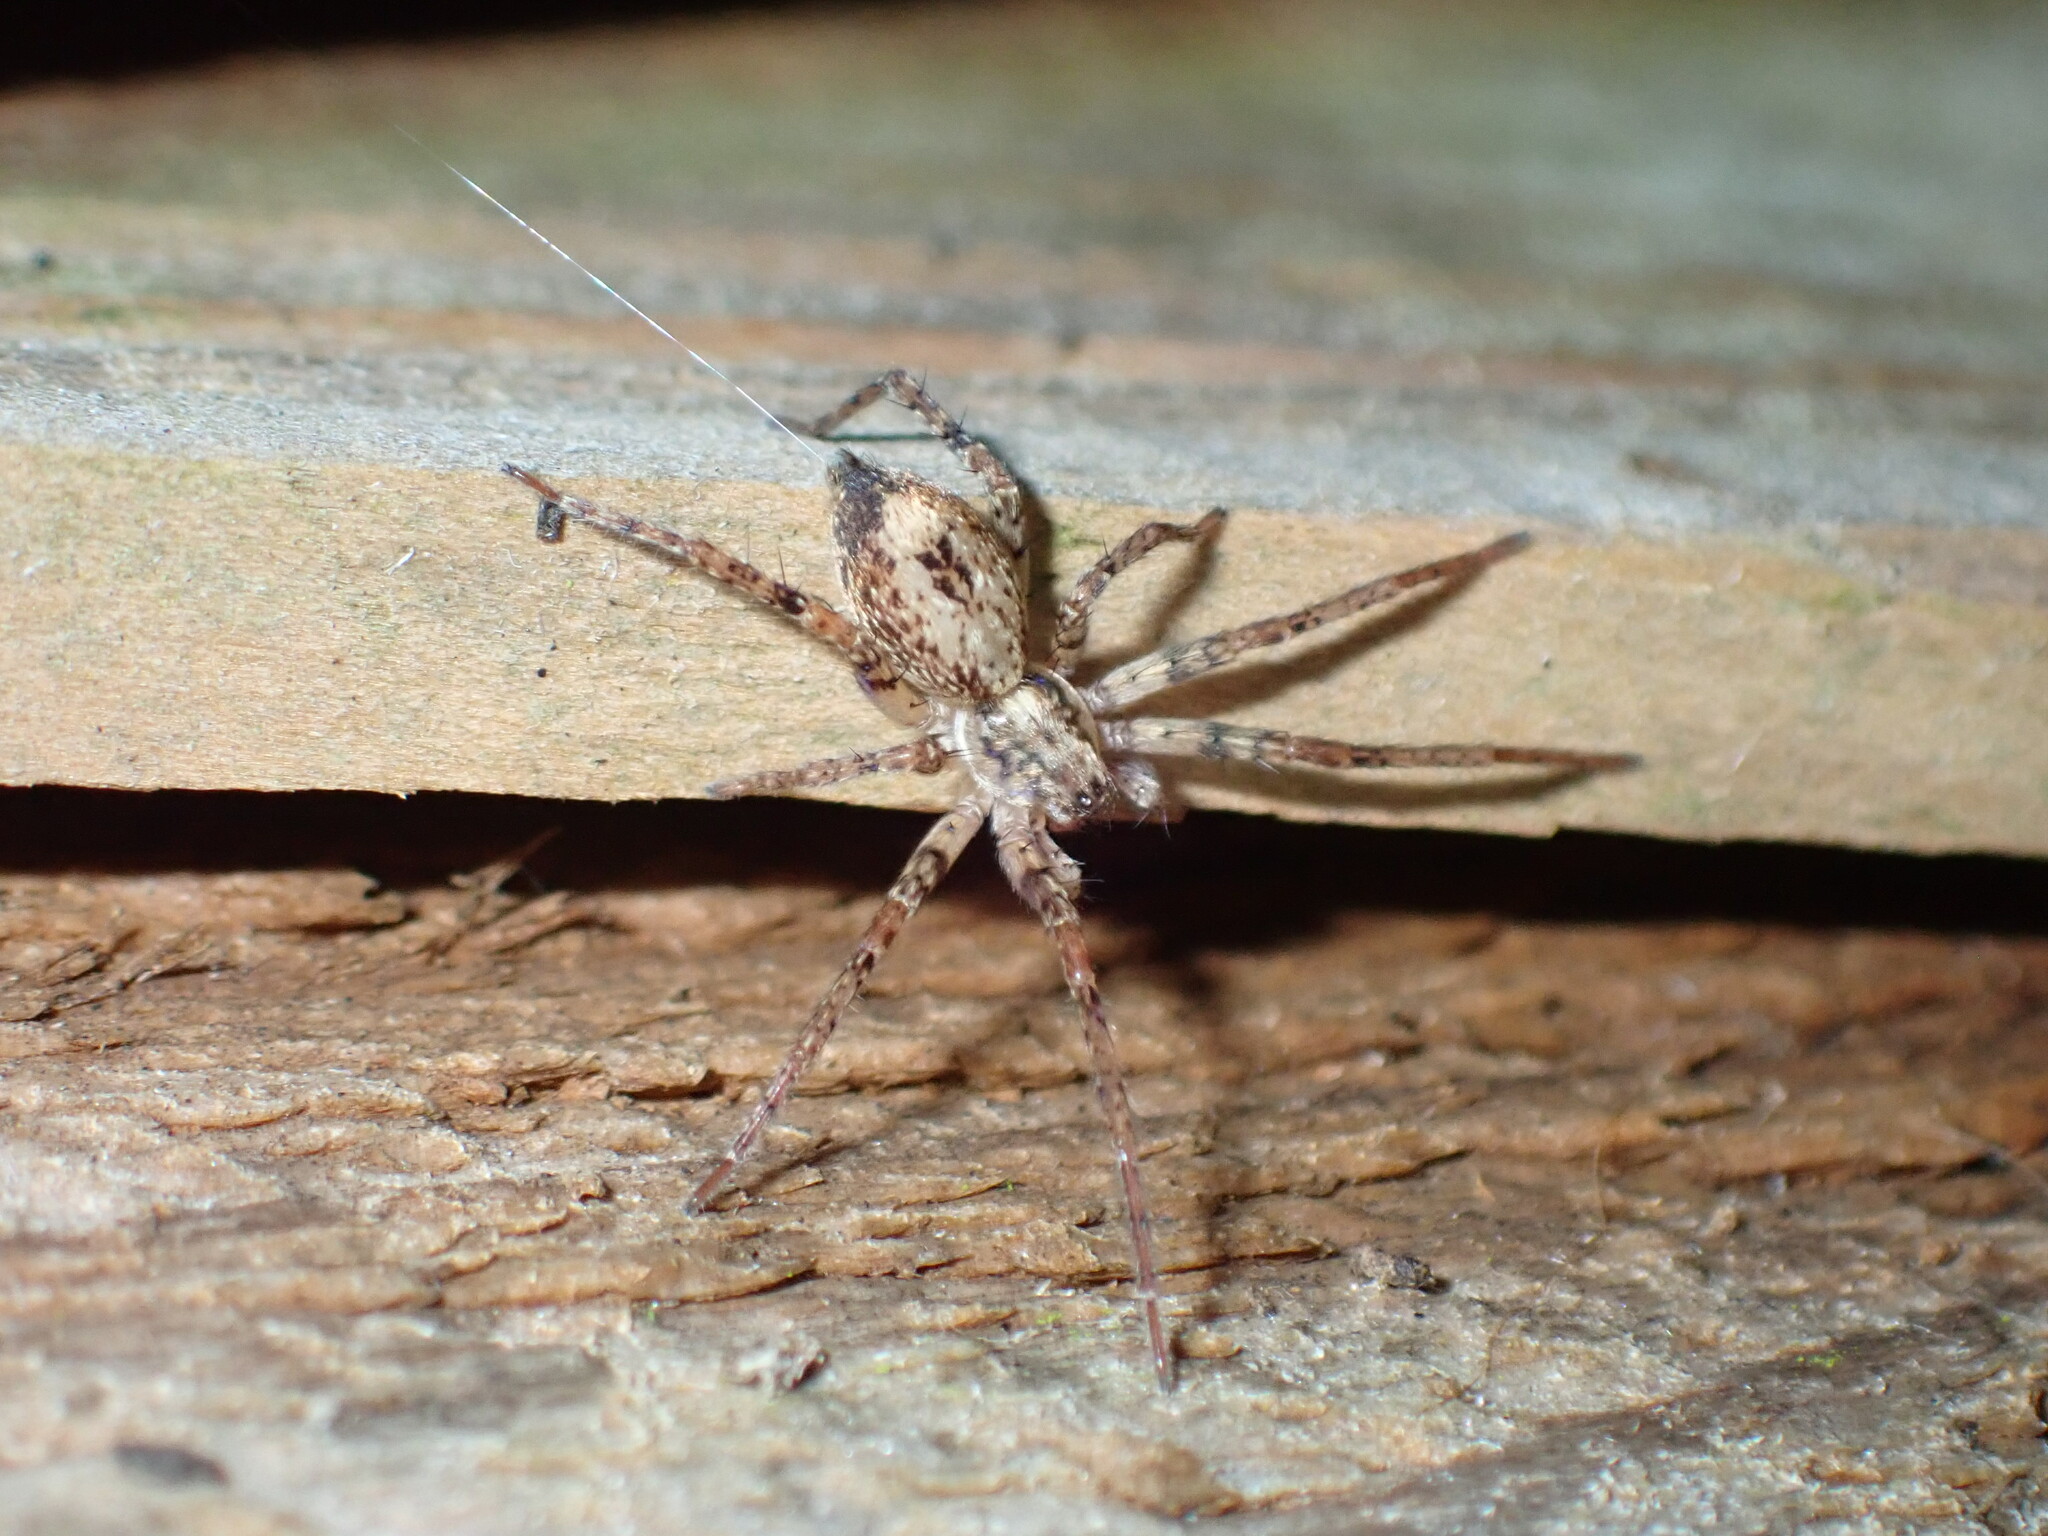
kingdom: Animalia
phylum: Arthropoda
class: Arachnida
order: Araneae
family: Anyphaenidae
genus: Anyphaena
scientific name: Anyphaena accentuata
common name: Buzzing spider
